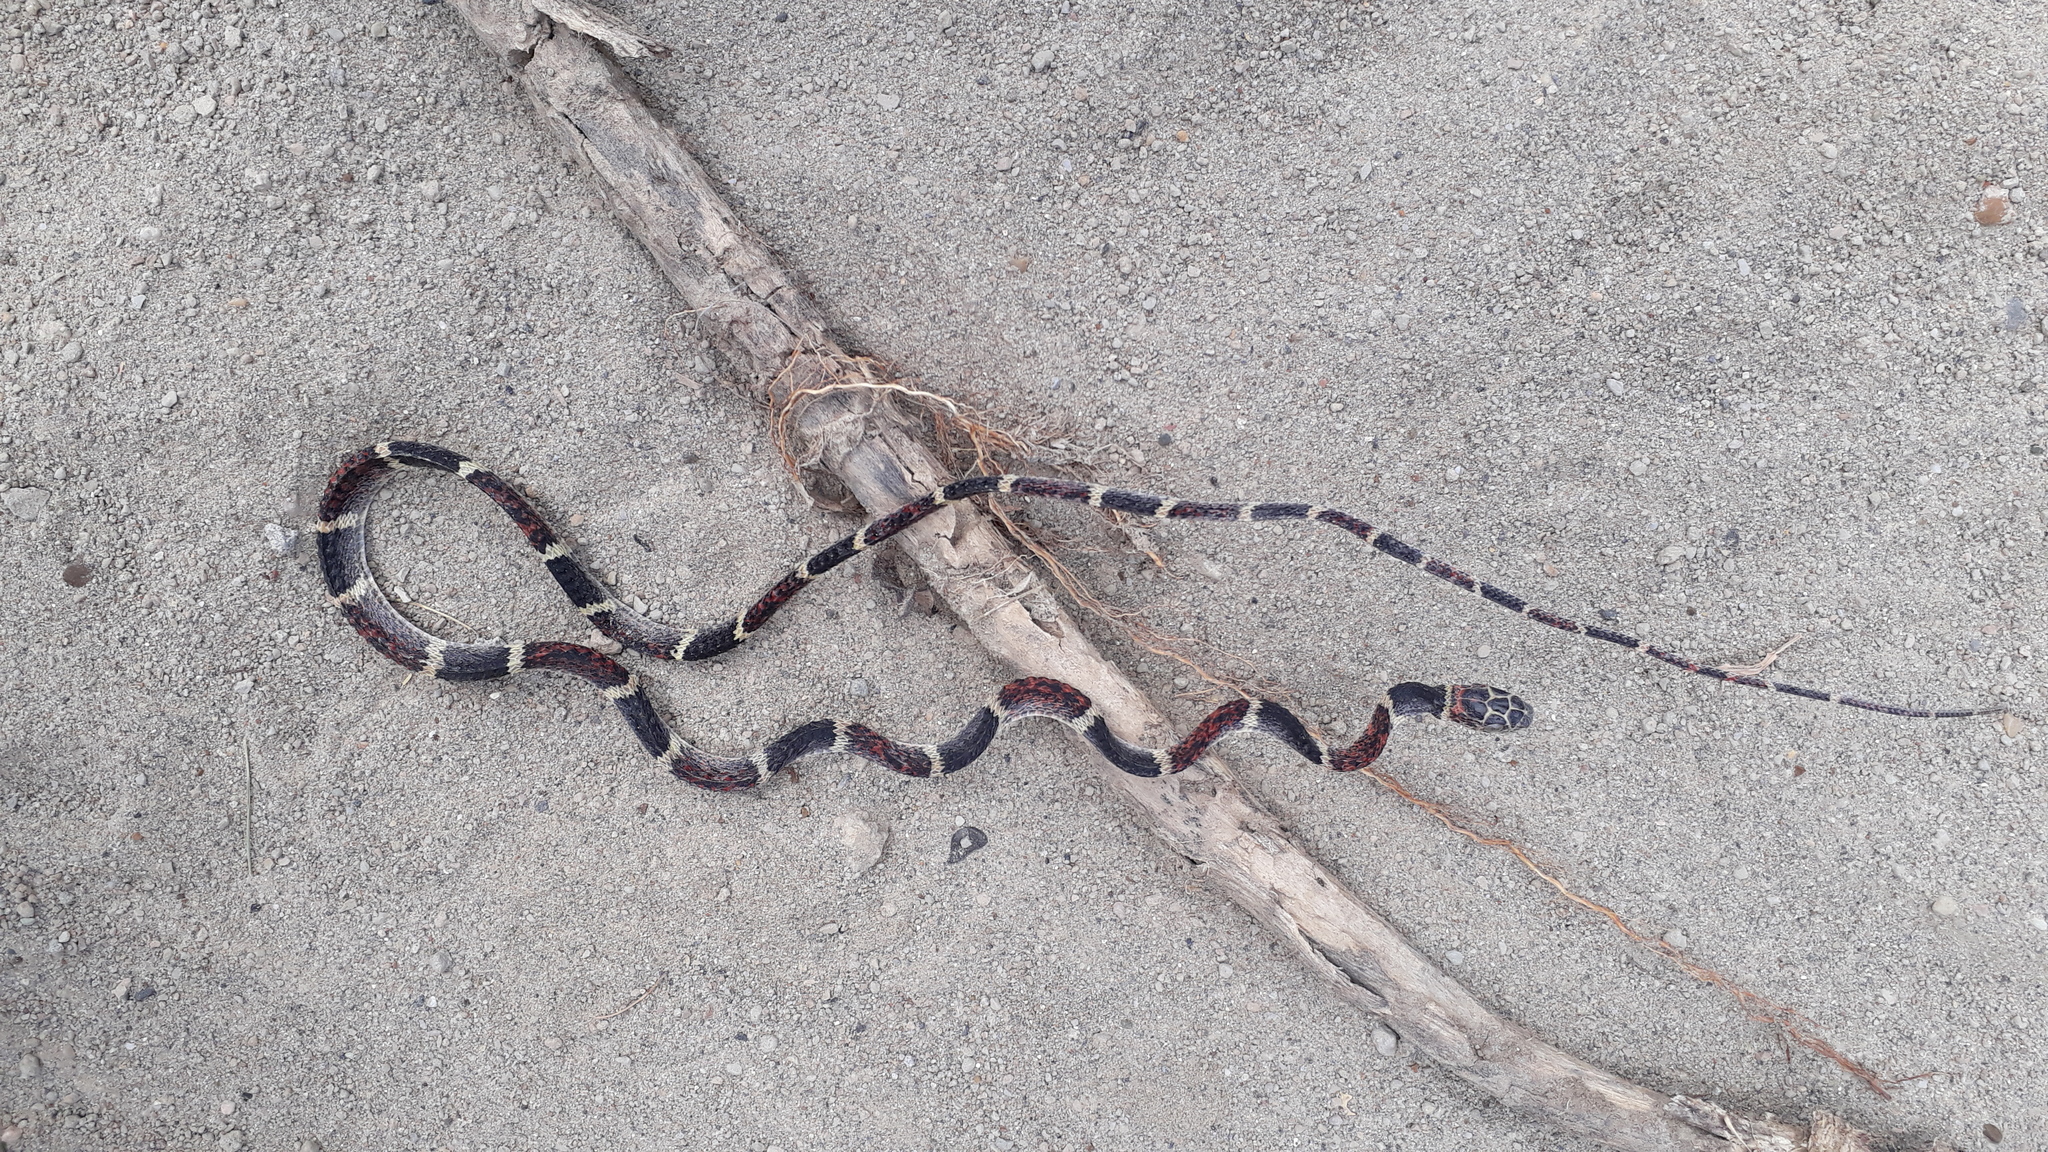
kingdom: Animalia
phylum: Chordata
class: Squamata
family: Colubridae
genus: Rhinobothryum
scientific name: Rhinobothryum bovallii
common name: False tree coral
